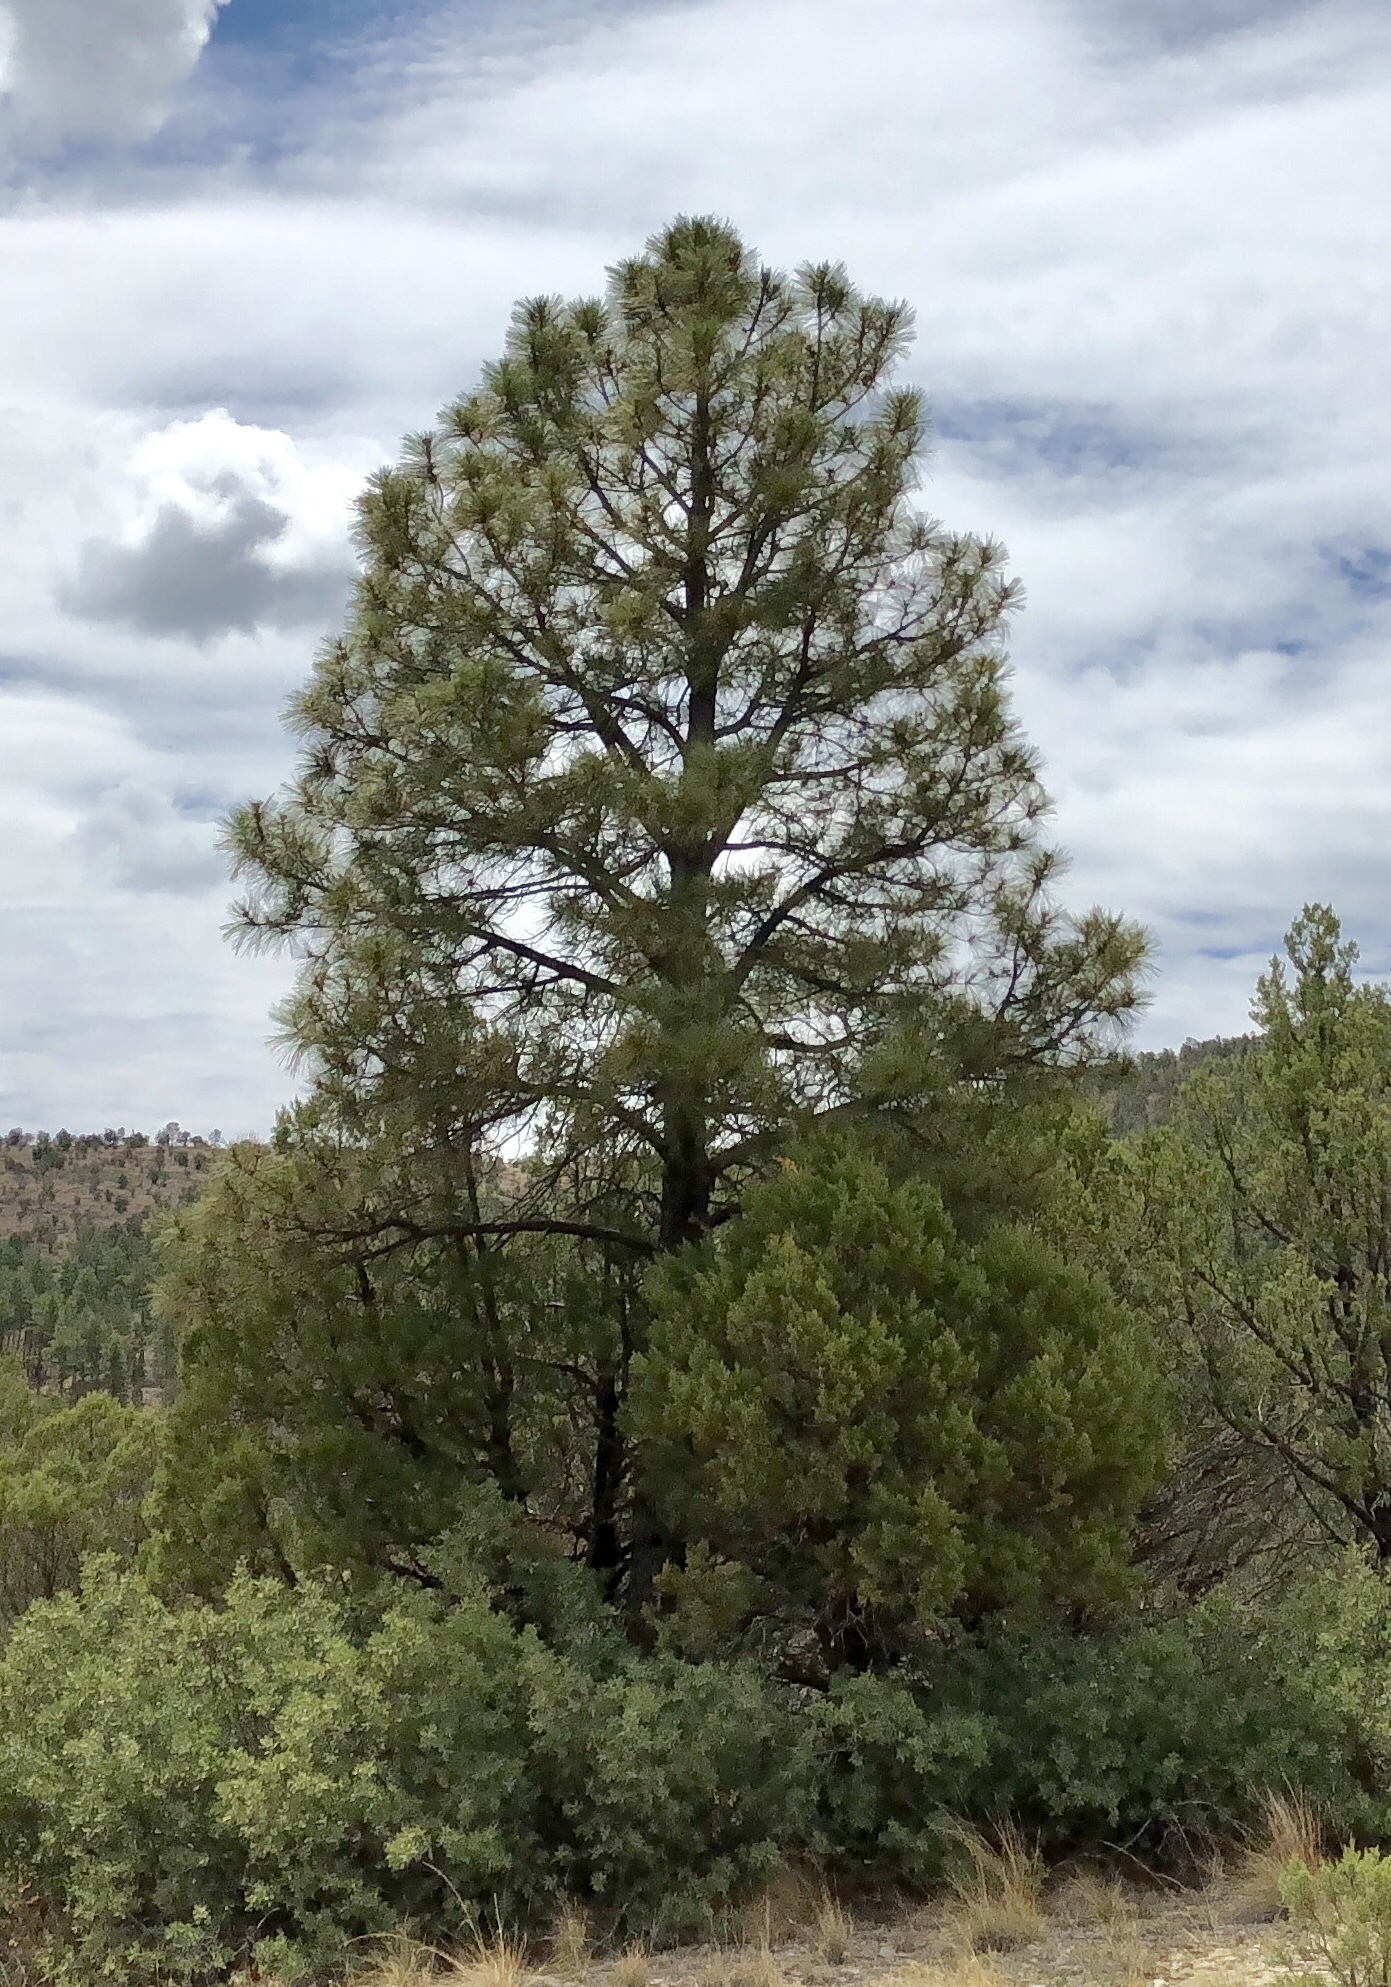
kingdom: Plantae
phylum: Tracheophyta
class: Pinopsida
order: Pinales
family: Pinaceae
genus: Pinus
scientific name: Pinus ponderosa
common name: Western yellow-pine
